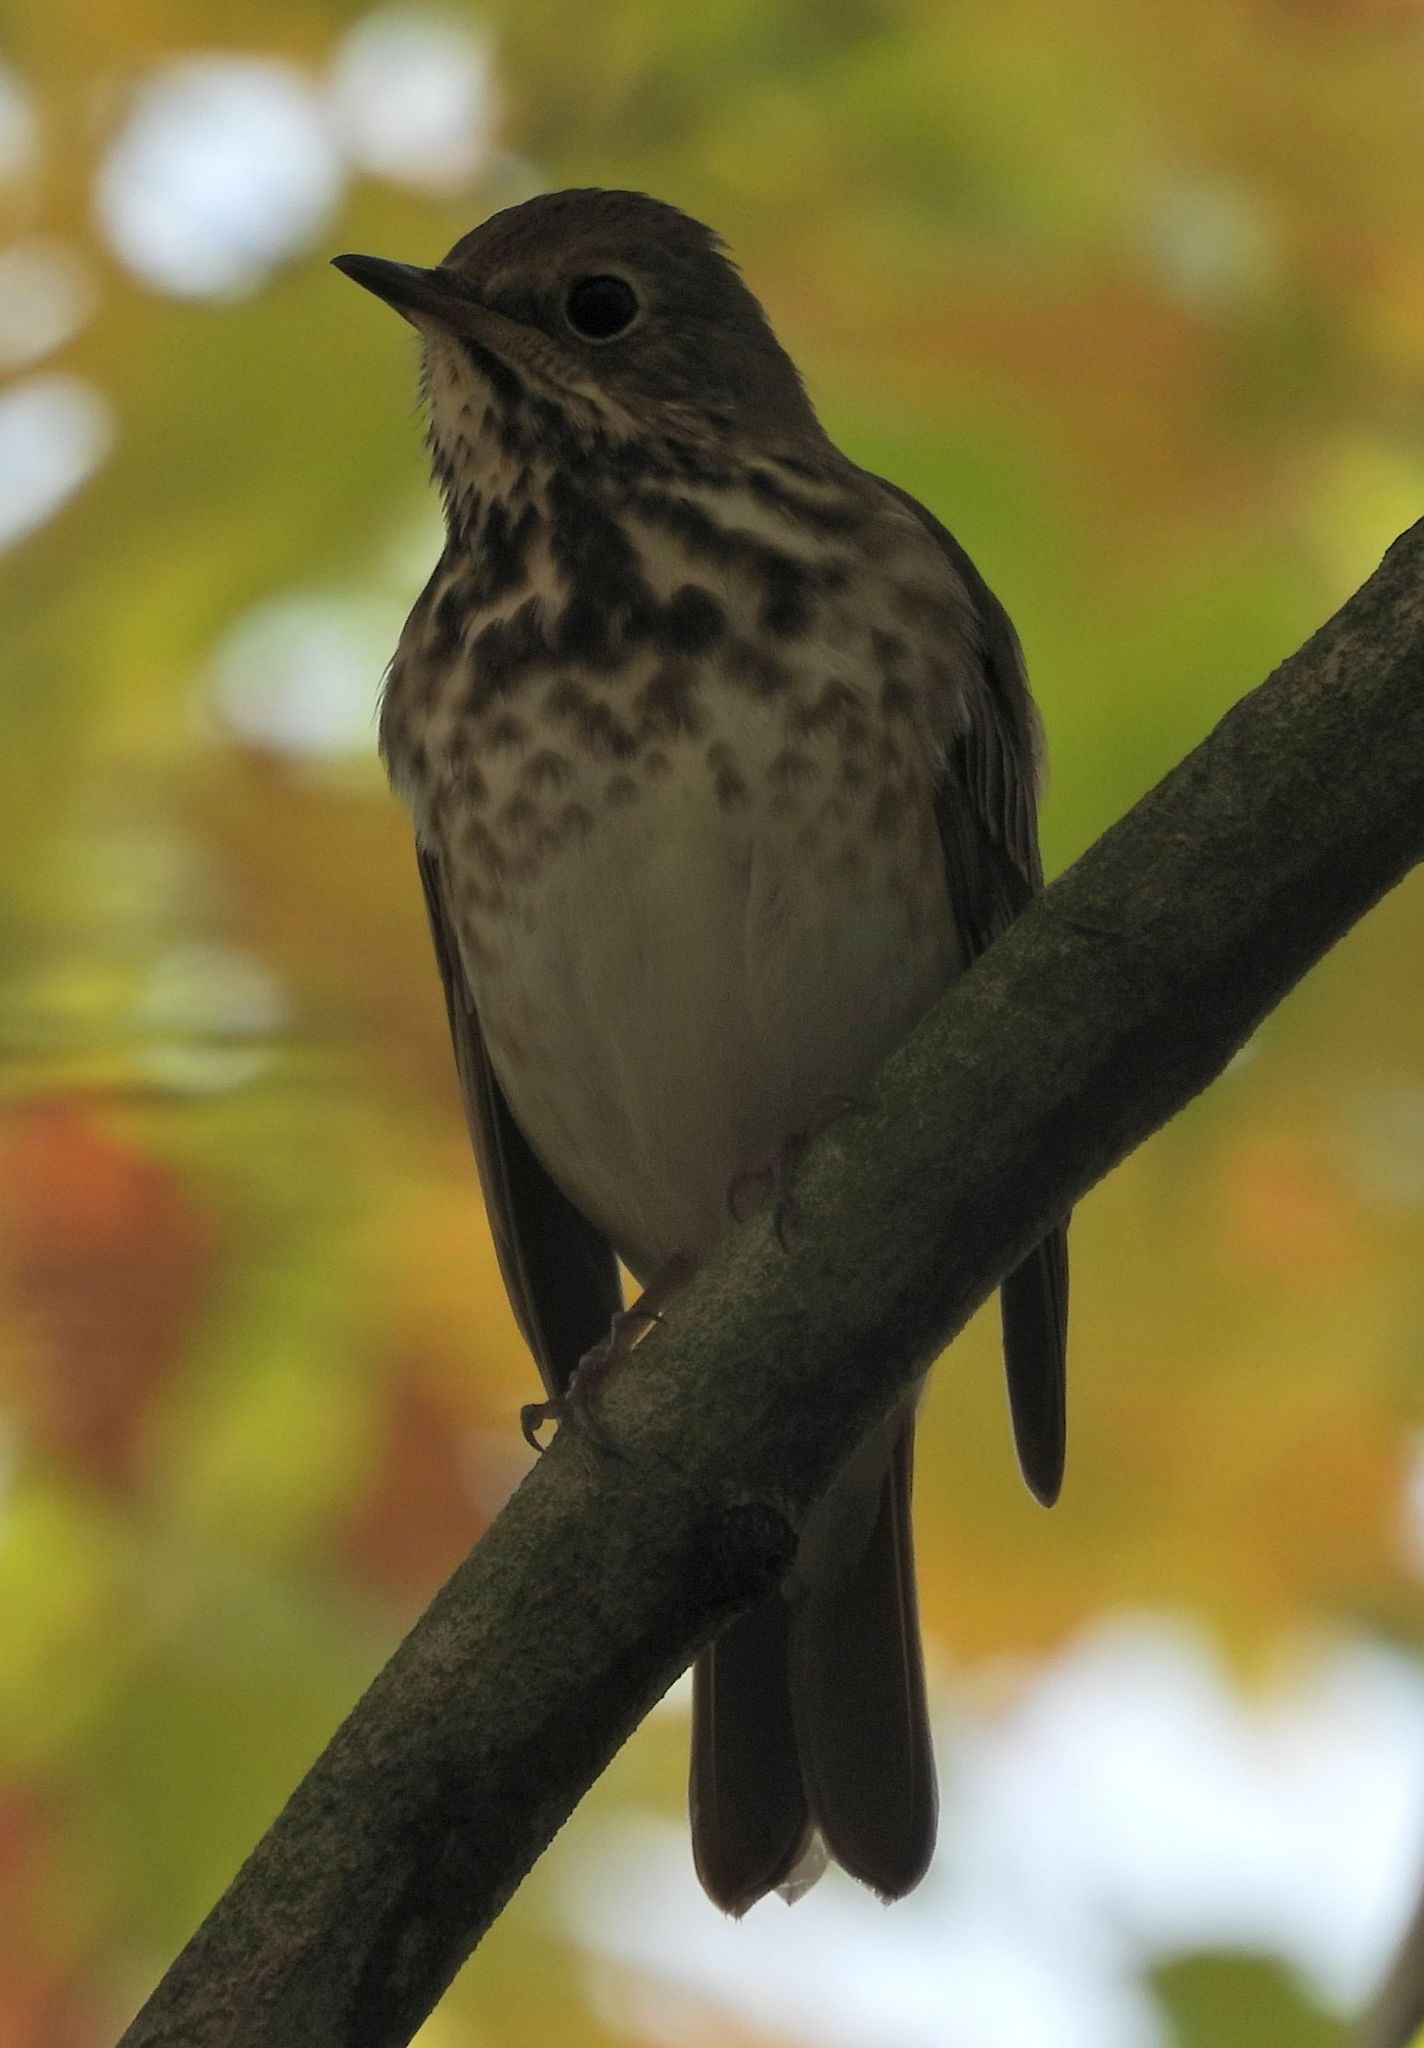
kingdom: Animalia
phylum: Chordata
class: Aves
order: Passeriformes
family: Turdidae
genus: Catharus
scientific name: Catharus guttatus
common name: Hermit thrush
